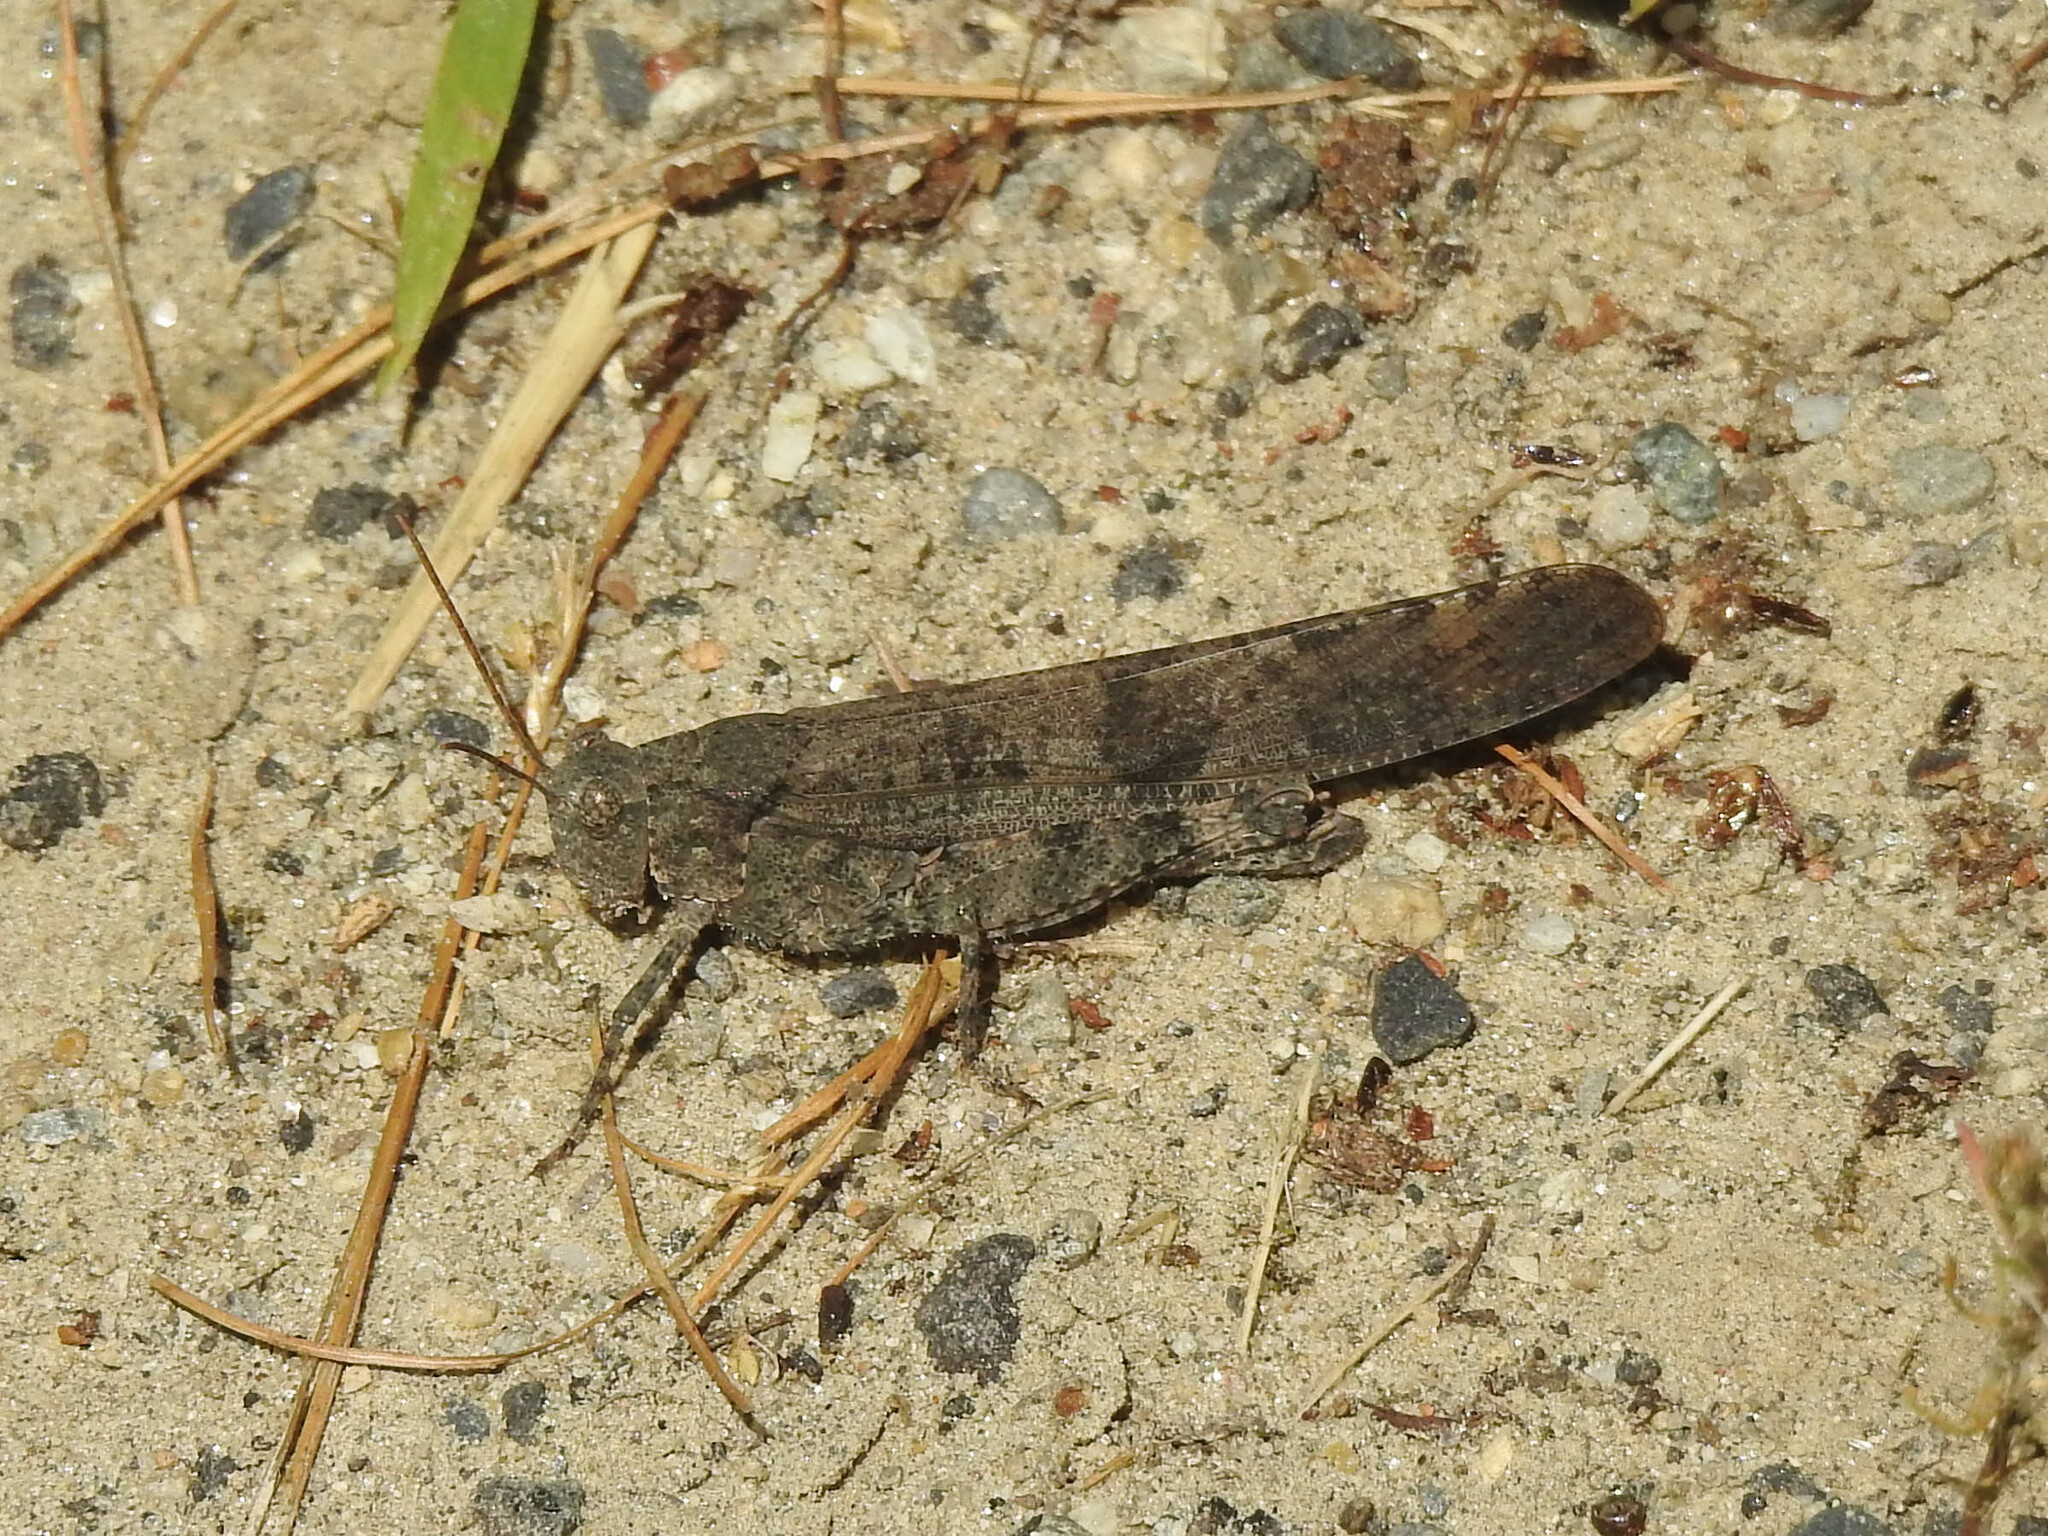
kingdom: Animalia
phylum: Arthropoda
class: Insecta
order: Orthoptera
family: Acrididae
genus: Dissosteira
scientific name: Dissosteira carolina
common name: Carolina grasshopper
